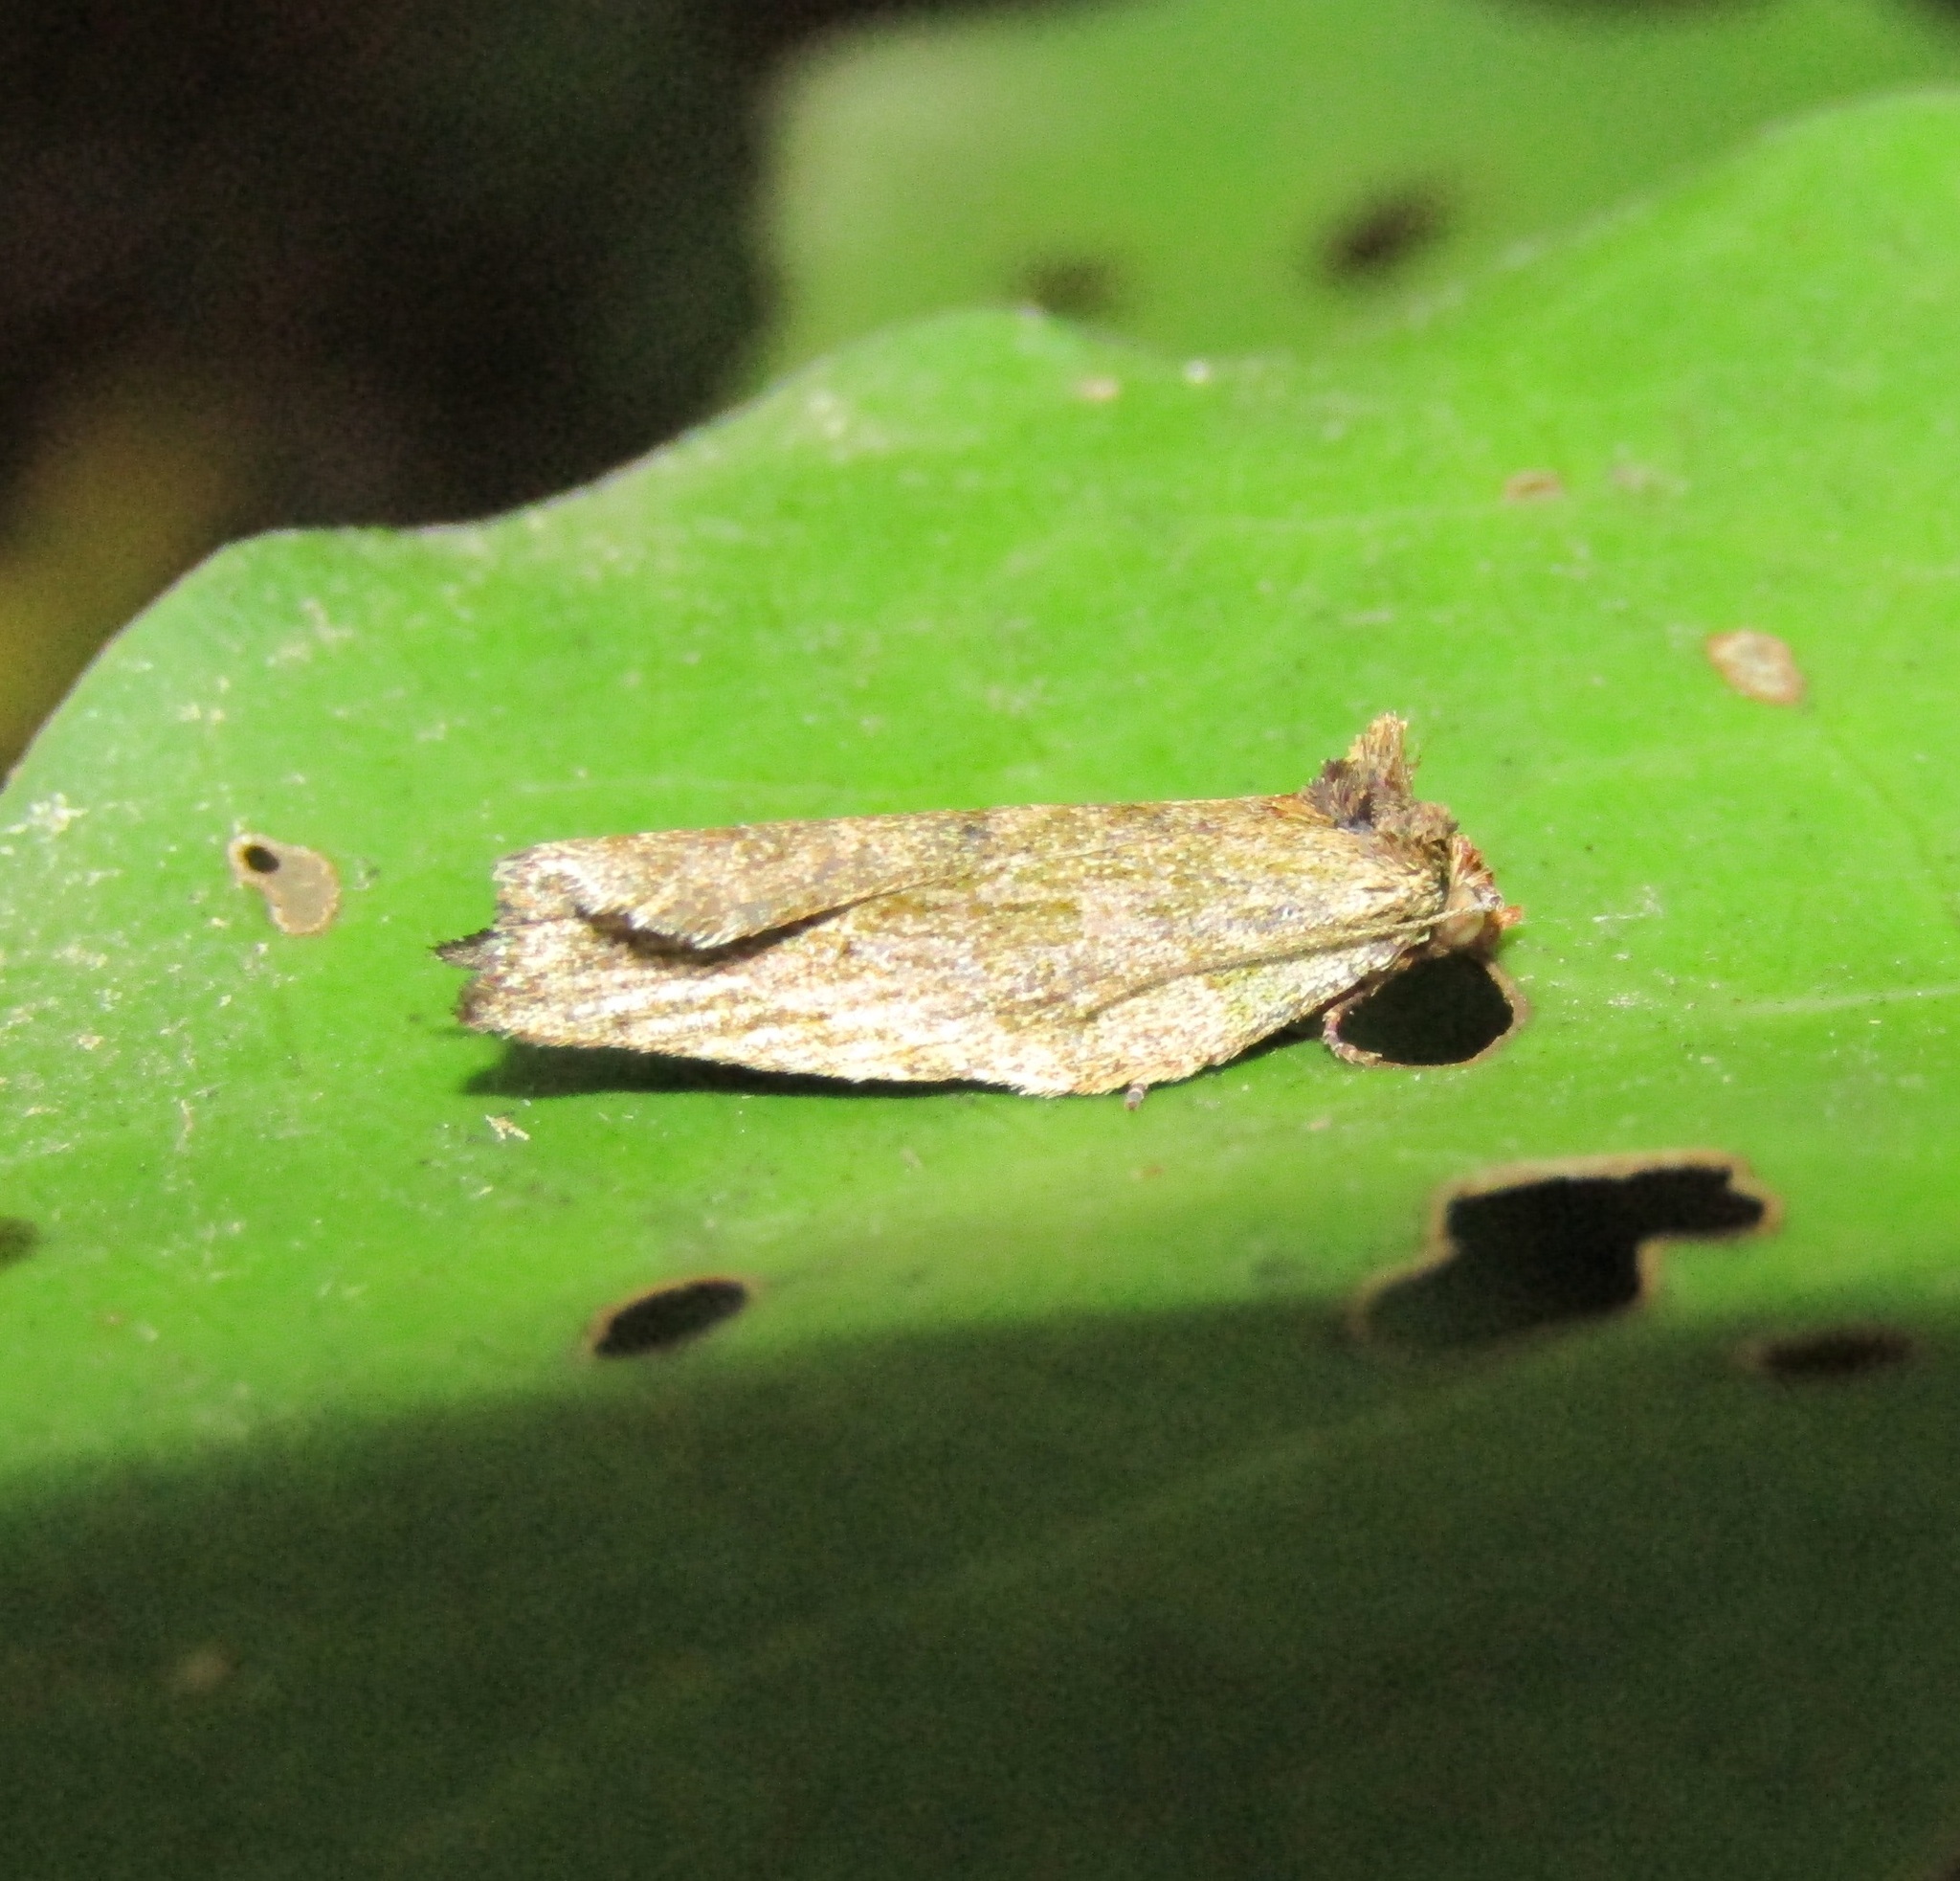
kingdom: Animalia
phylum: Arthropoda
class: Insecta
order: Lepidoptera
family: Tortricidae
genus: Epalxiphora
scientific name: Epalxiphora axenana
